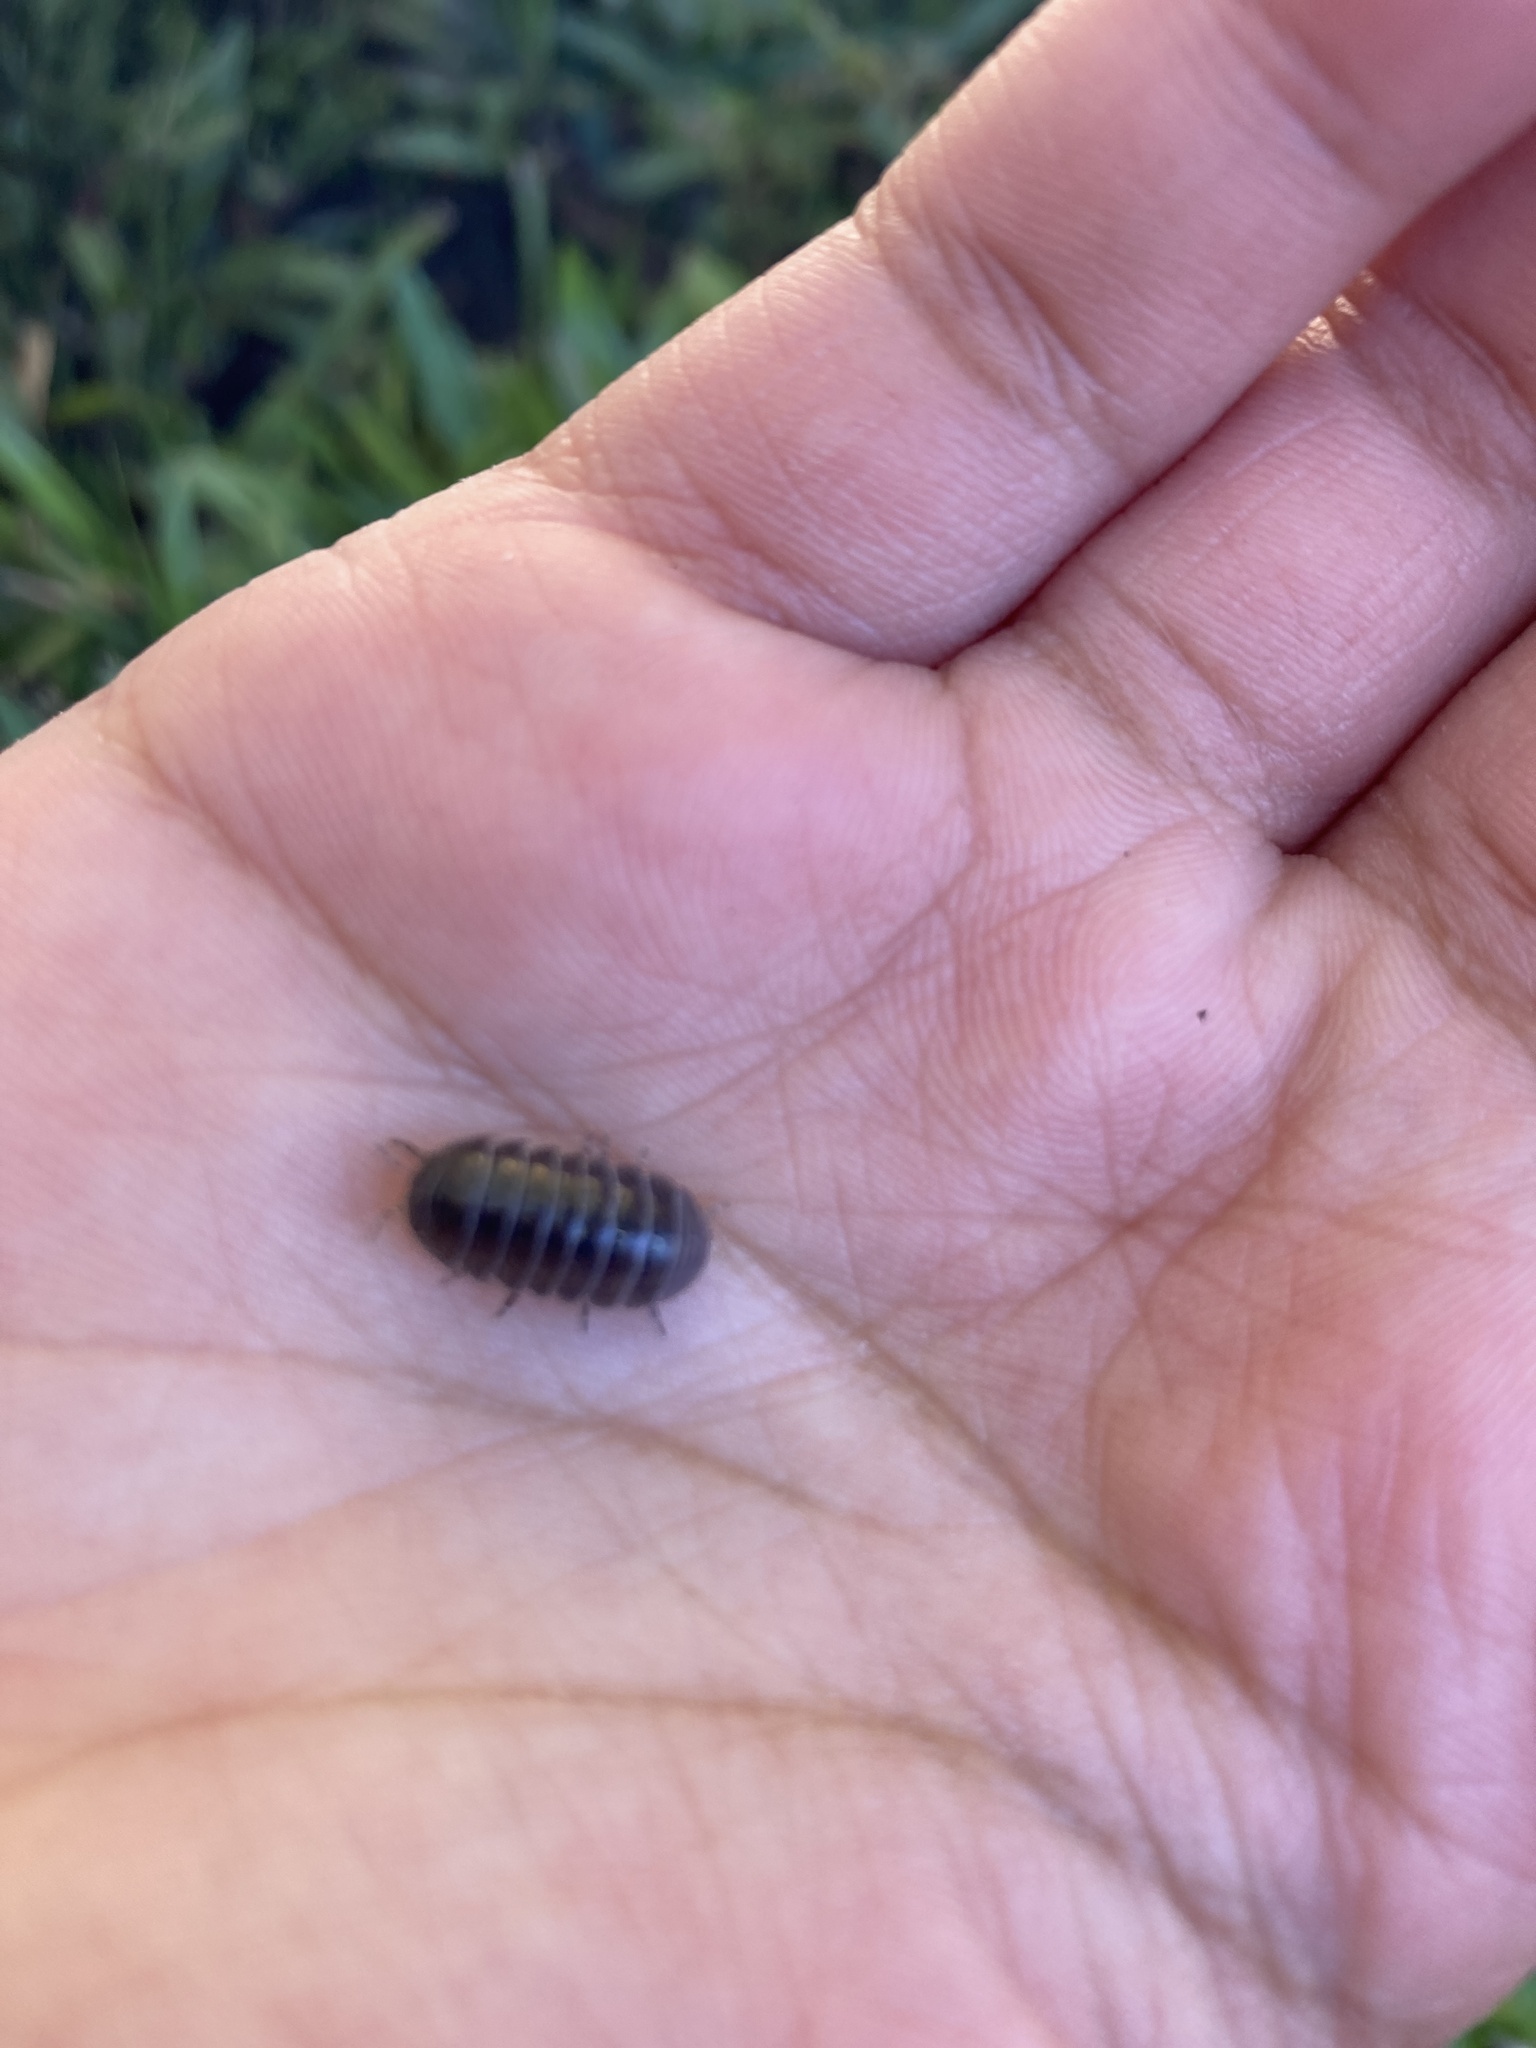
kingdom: Animalia
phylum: Arthropoda
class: Malacostraca
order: Isopoda
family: Armadillidiidae
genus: Armadillidium
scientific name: Armadillidium vulgare
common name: Common pill woodlouse
